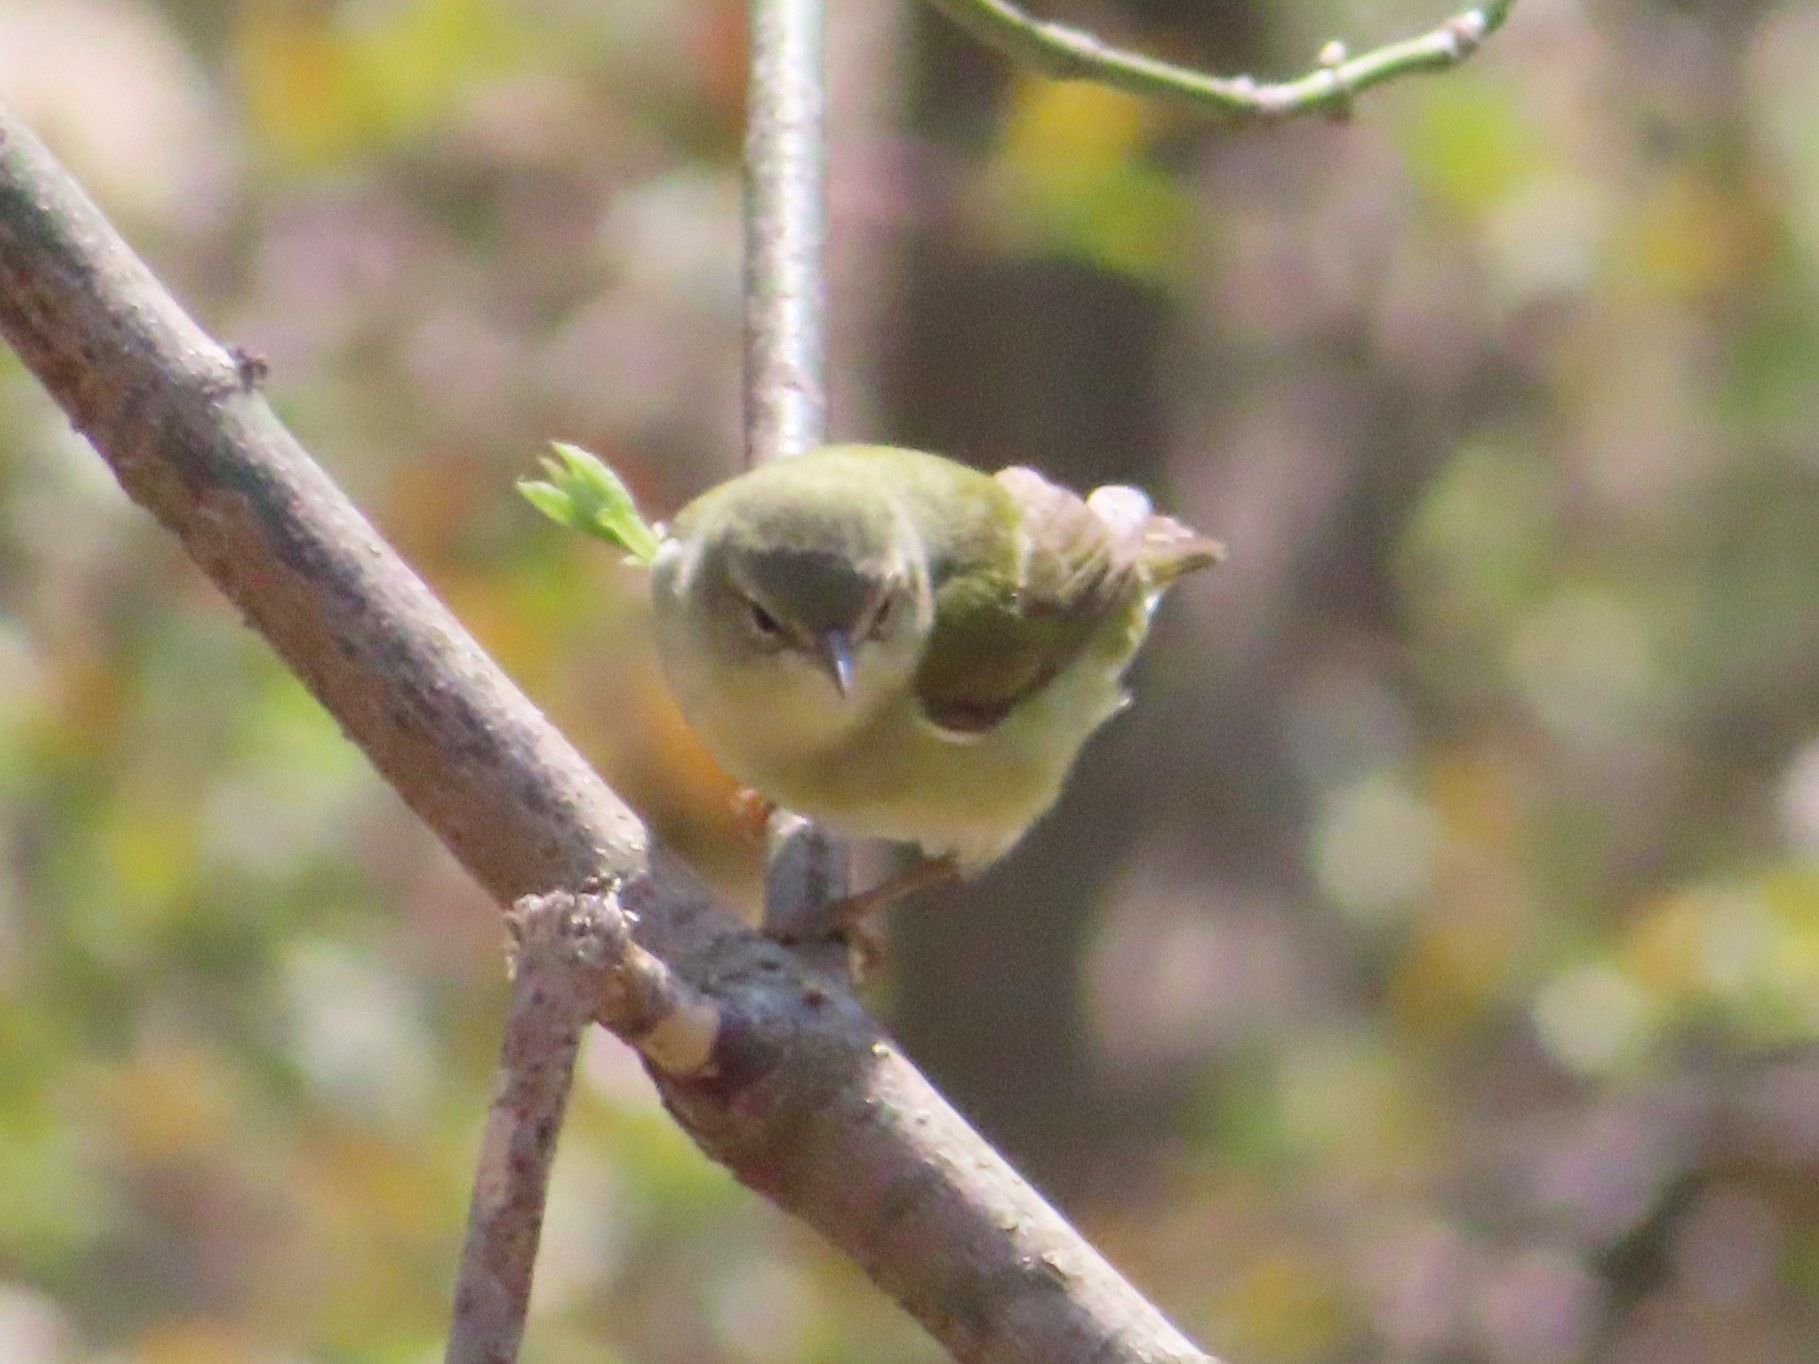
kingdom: Animalia
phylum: Chordata
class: Aves
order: Passeriformes
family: Parulidae
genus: Leiothlypis
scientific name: Leiothlypis peregrina
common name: Tennessee warbler
